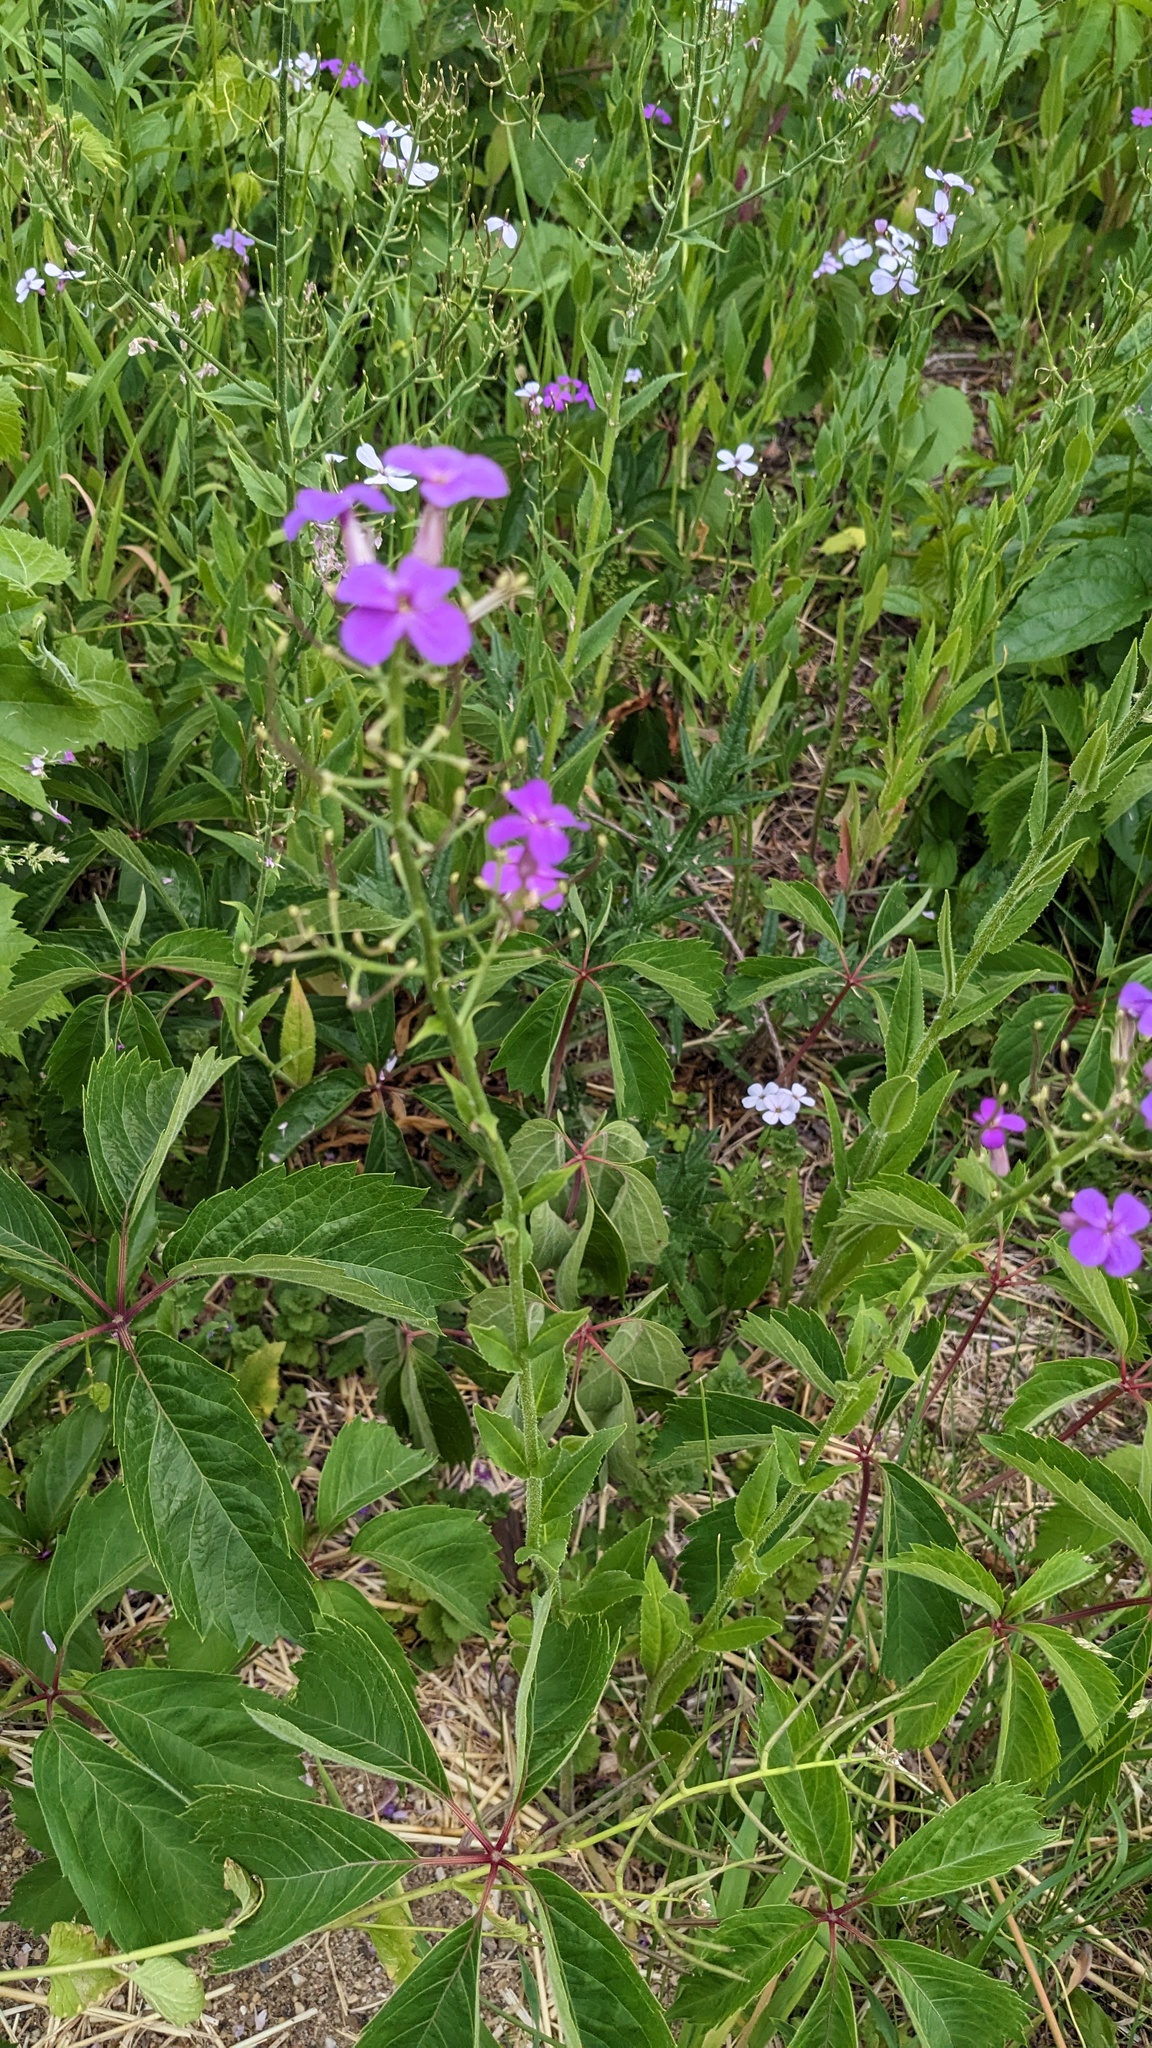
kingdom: Plantae
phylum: Tracheophyta
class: Magnoliopsida
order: Brassicales
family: Brassicaceae
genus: Hesperis
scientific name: Hesperis matronalis
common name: Dame's-violet
